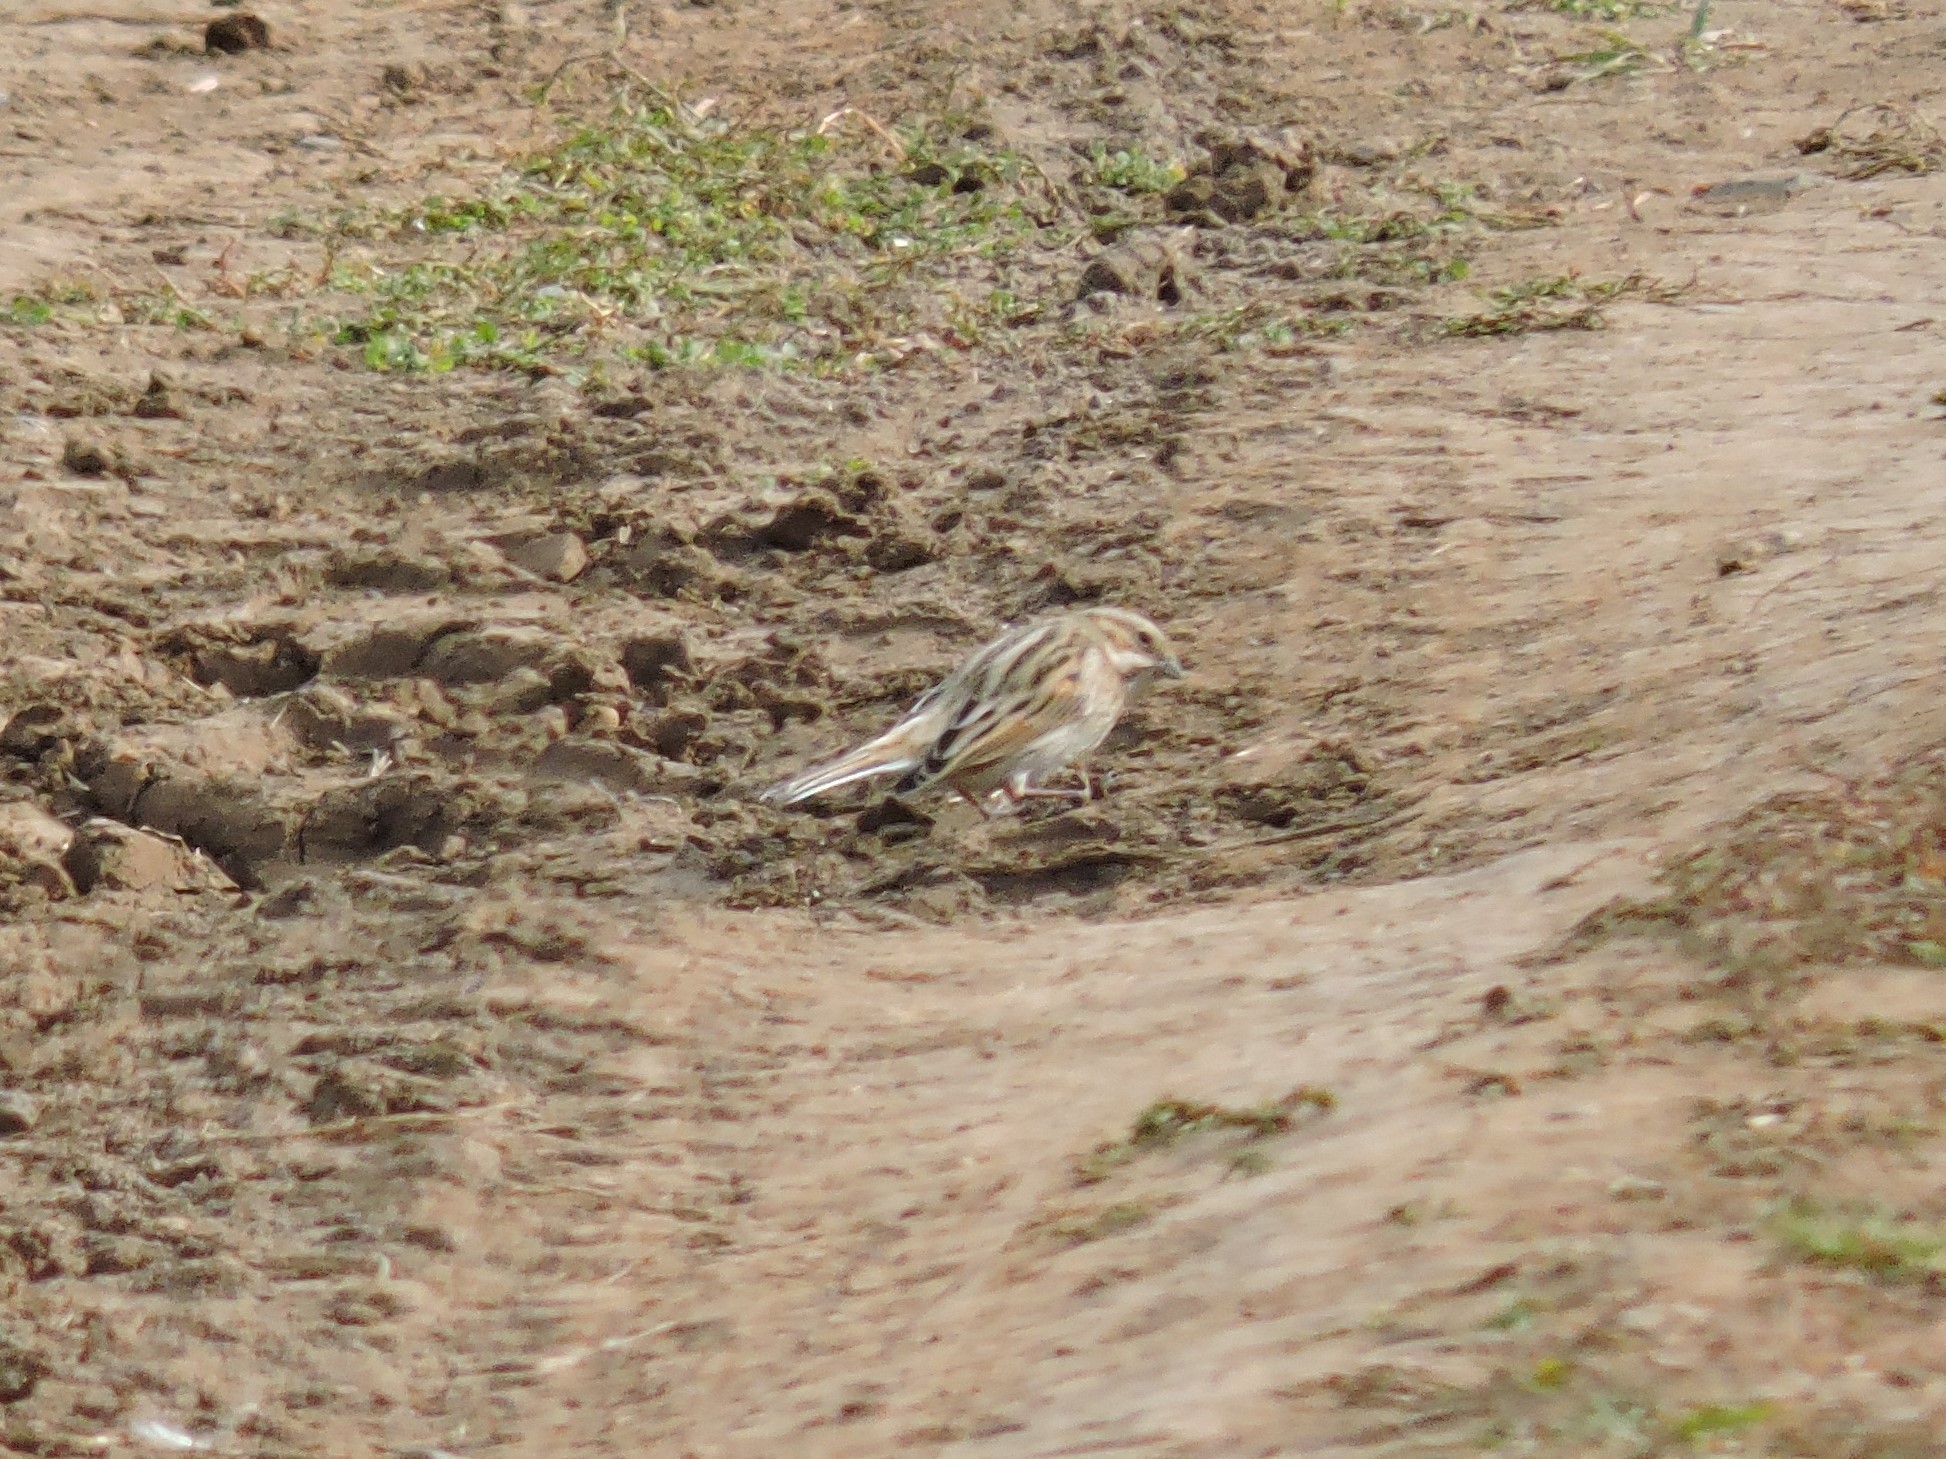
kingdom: Animalia
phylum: Chordata
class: Aves
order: Passeriformes
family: Emberizidae
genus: Emberiza
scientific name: Emberiza schoeniclus
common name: Reed bunting
